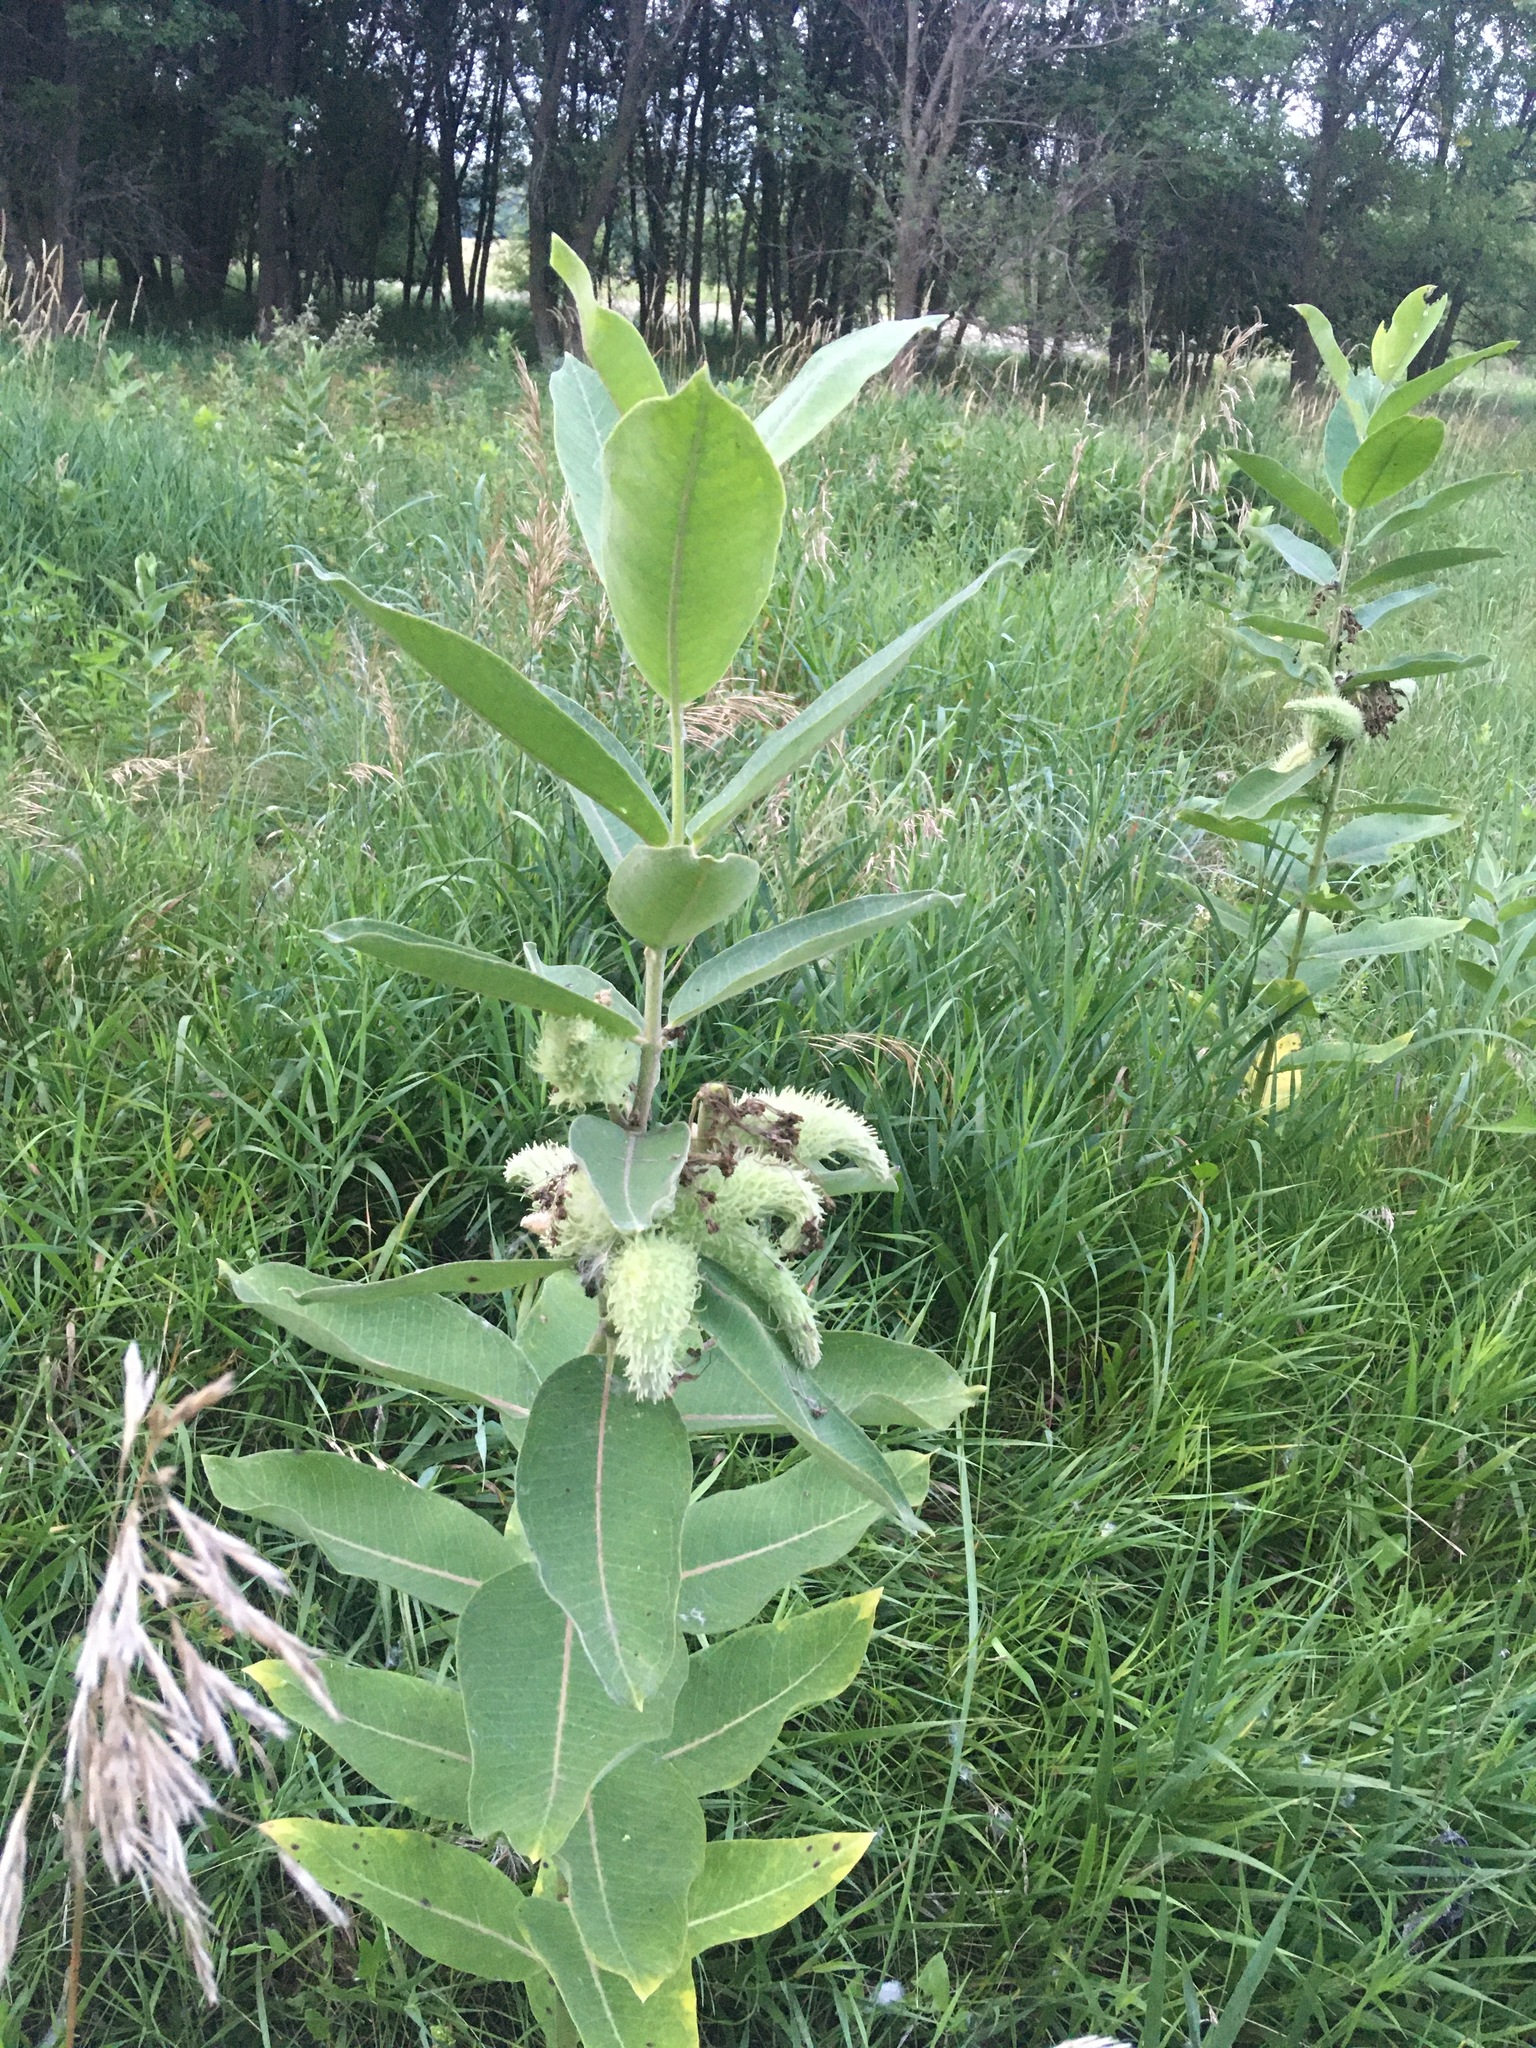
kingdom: Plantae
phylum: Tracheophyta
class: Magnoliopsida
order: Gentianales
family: Apocynaceae
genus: Asclepias
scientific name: Asclepias syriaca
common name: Common milkweed
